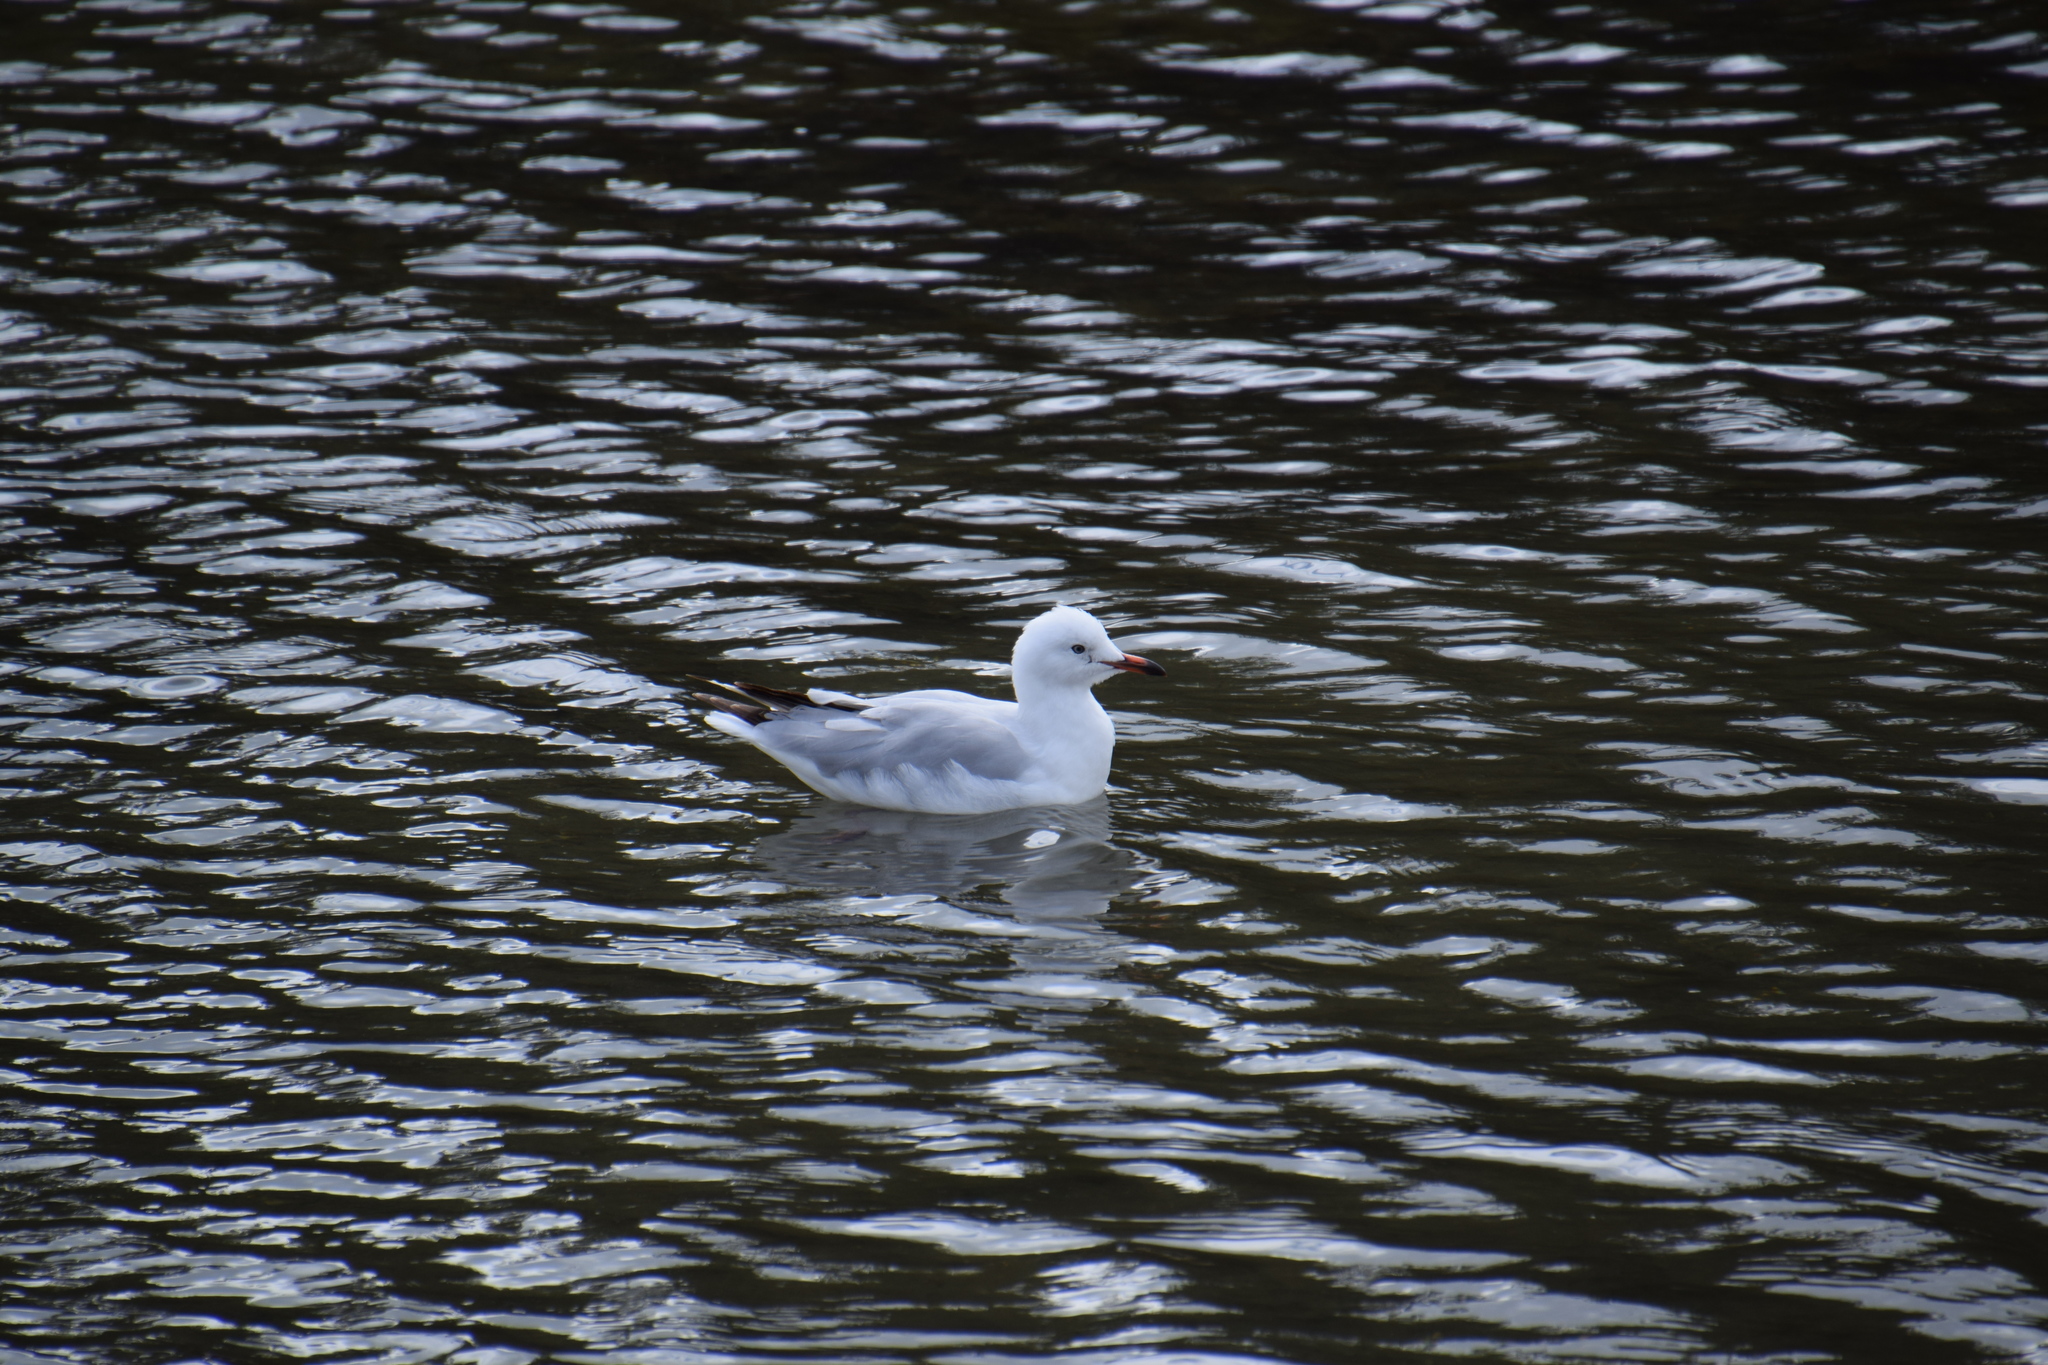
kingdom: Animalia
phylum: Chordata
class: Aves
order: Charadriiformes
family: Laridae
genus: Chroicocephalus
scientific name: Chroicocephalus novaehollandiae
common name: Silver gull
